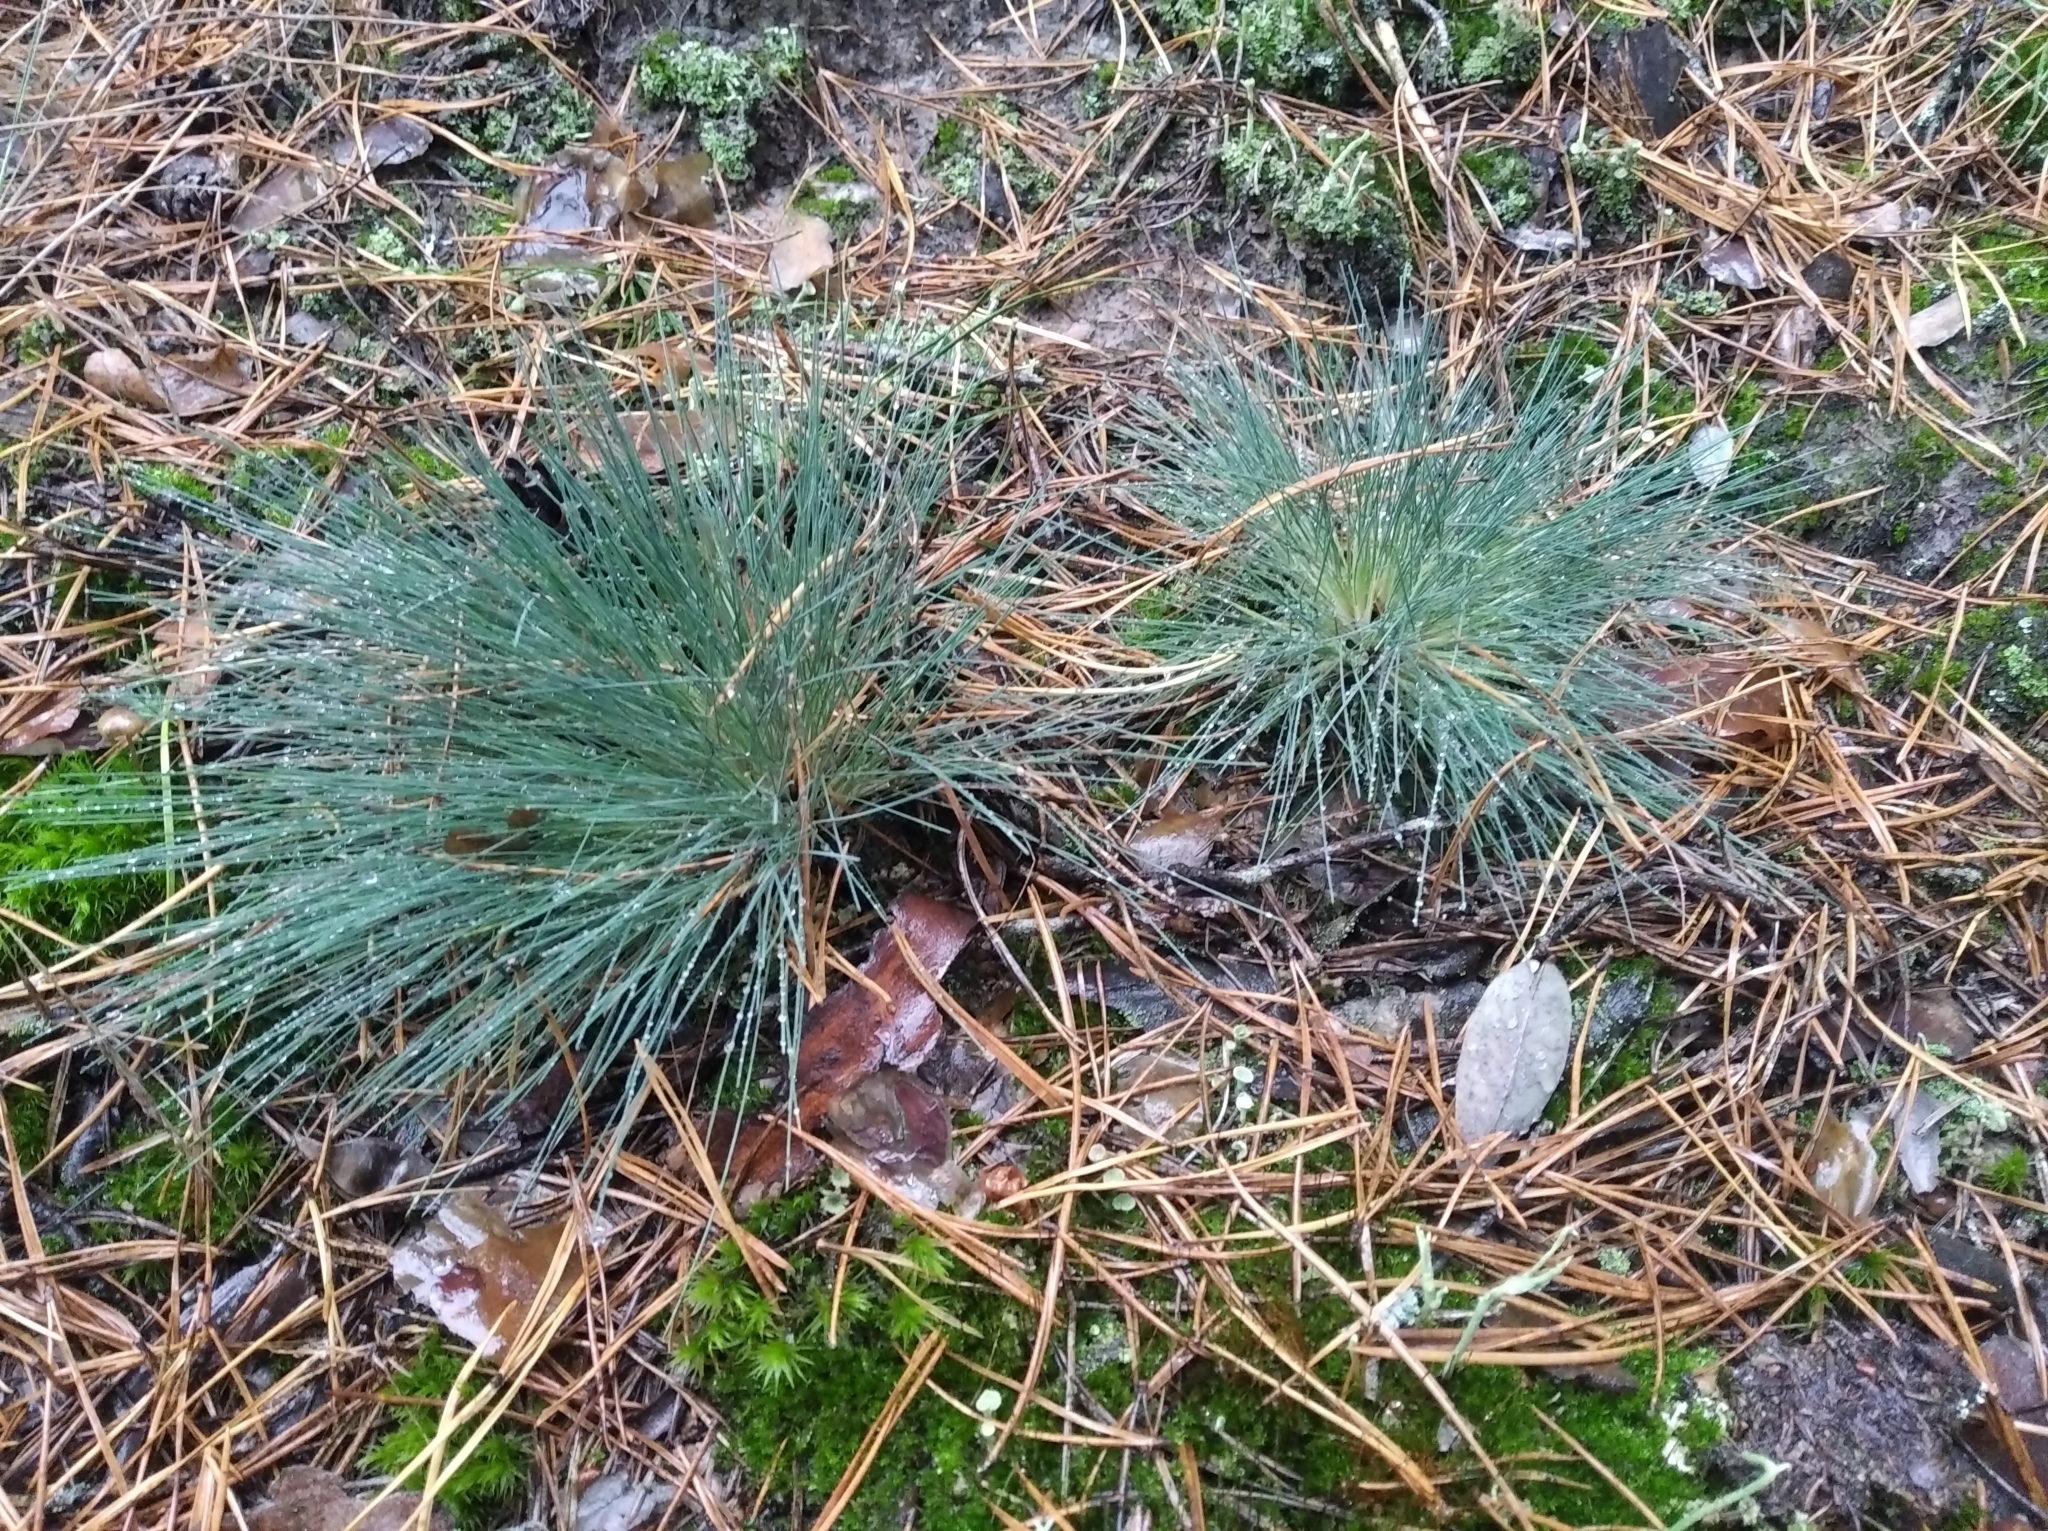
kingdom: Plantae
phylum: Tracheophyta
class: Liliopsida
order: Poales
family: Poaceae
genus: Corynephorus
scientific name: Corynephorus canescens
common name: Grey hair-grass
